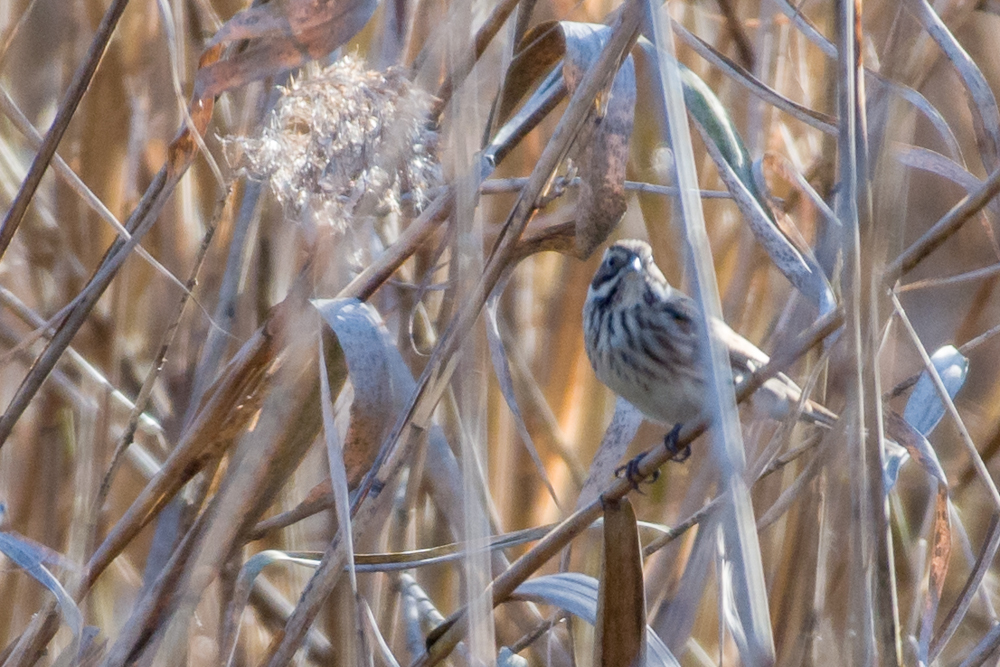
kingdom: Animalia
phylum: Chordata
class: Aves
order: Passeriformes
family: Emberizidae
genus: Emberiza
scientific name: Emberiza schoeniclus
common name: Reed bunting
